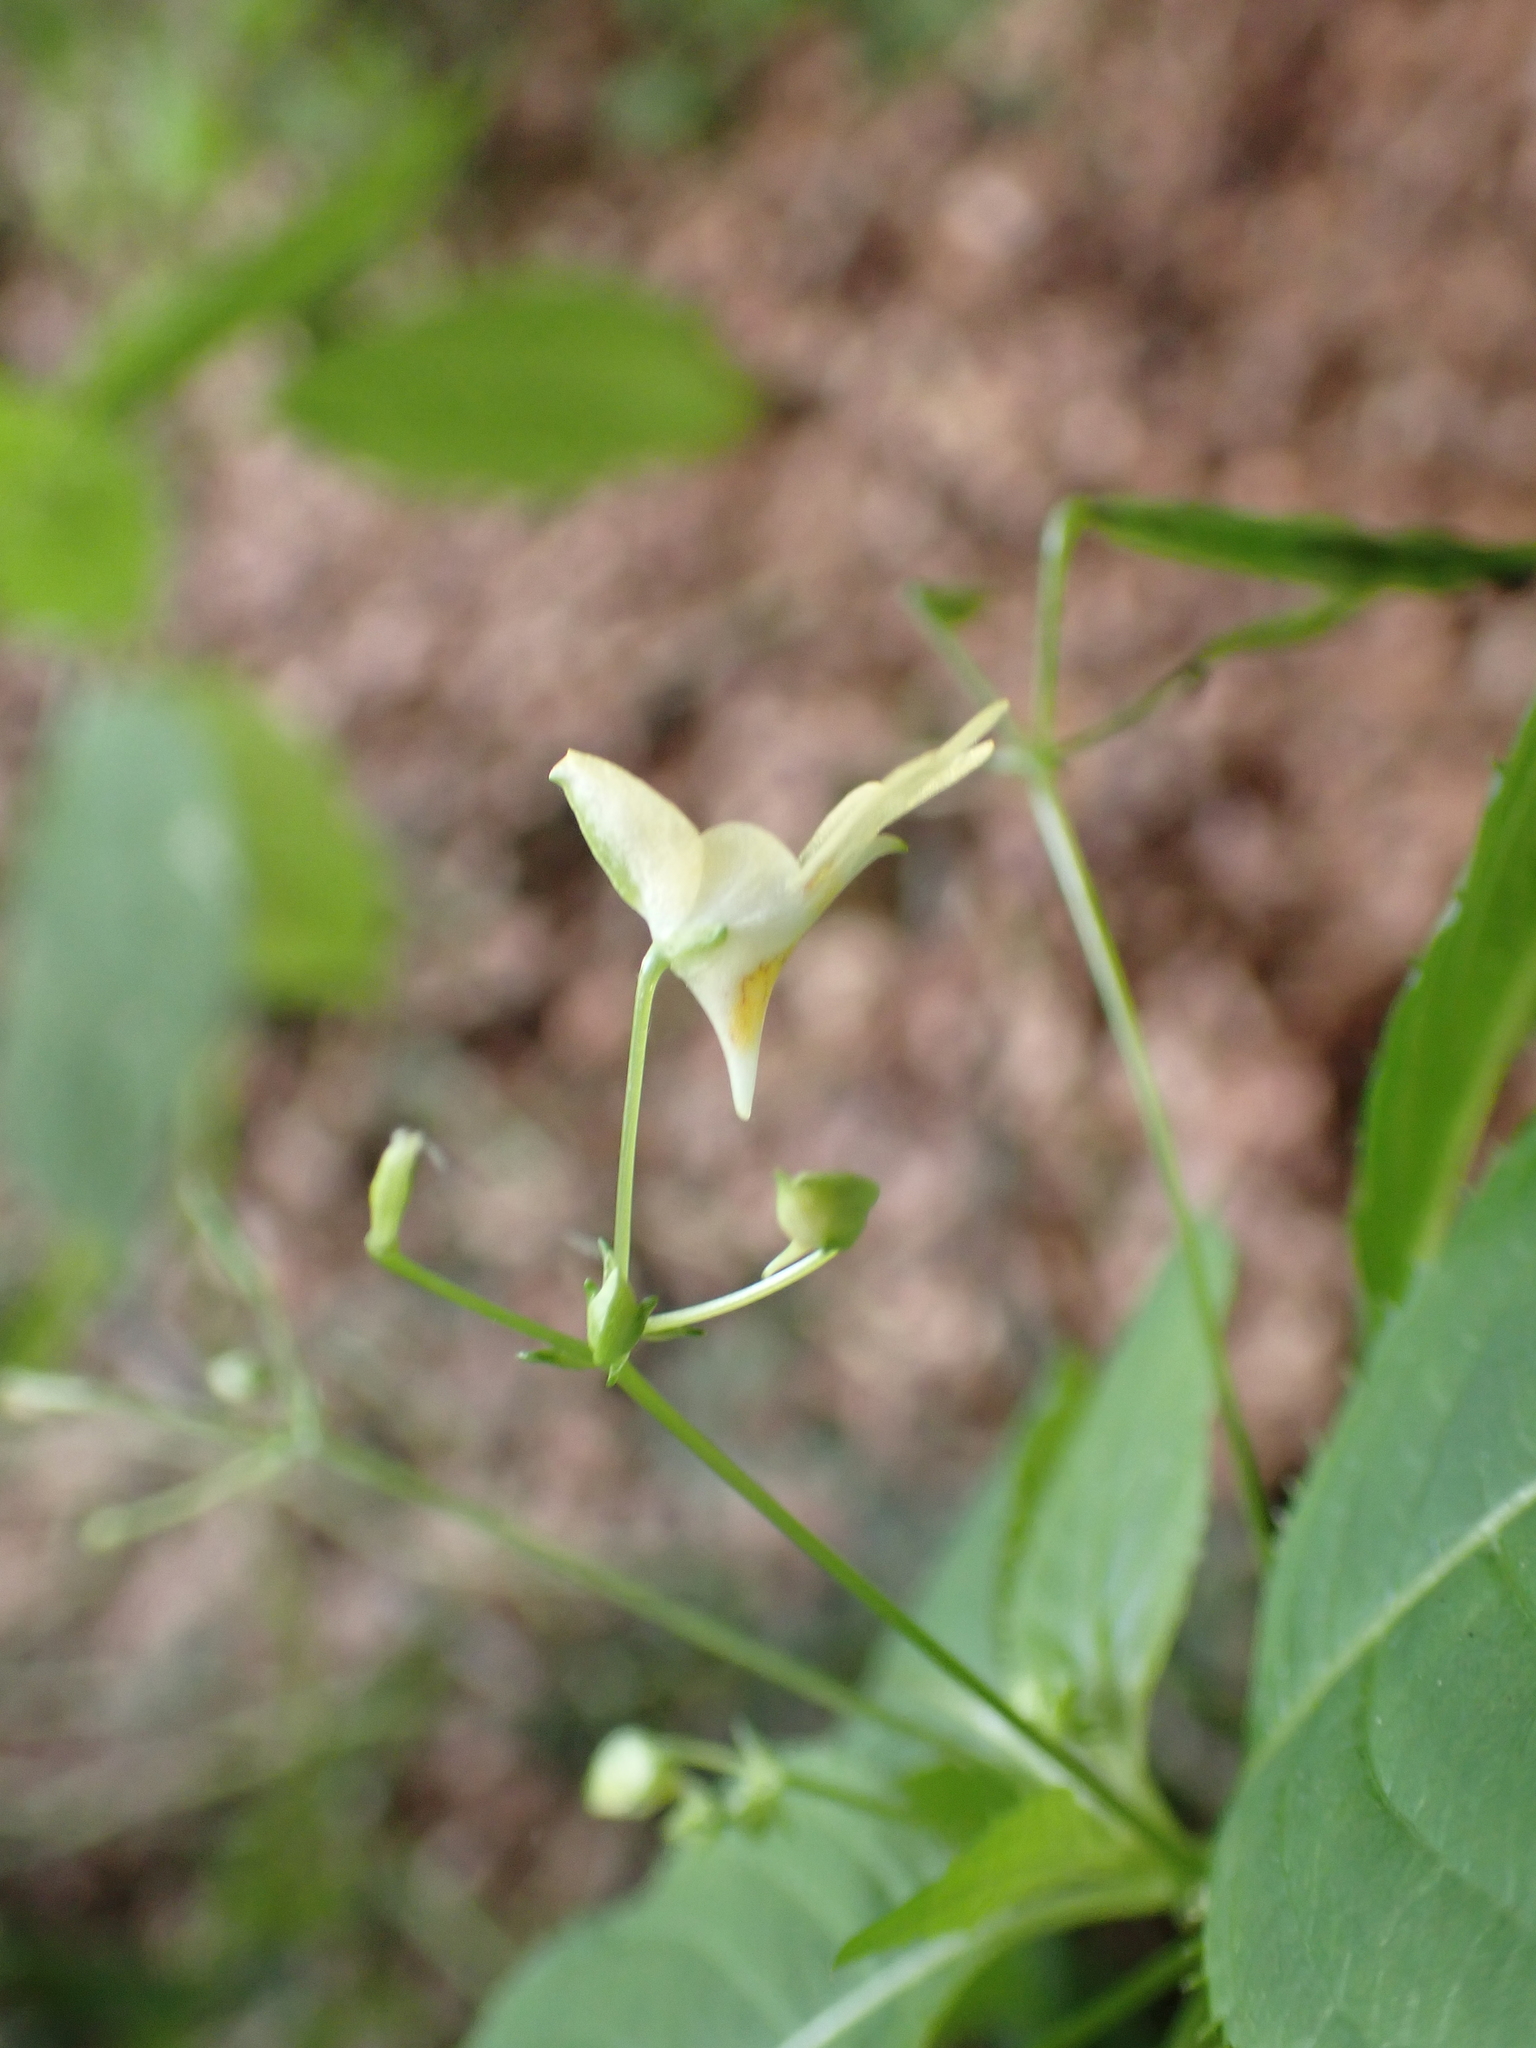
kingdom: Plantae
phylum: Tracheophyta
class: Magnoliopsida
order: Ericales
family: Balsaminaceae
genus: Impatiens
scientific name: Impatiens parviflora
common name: Small balsam
